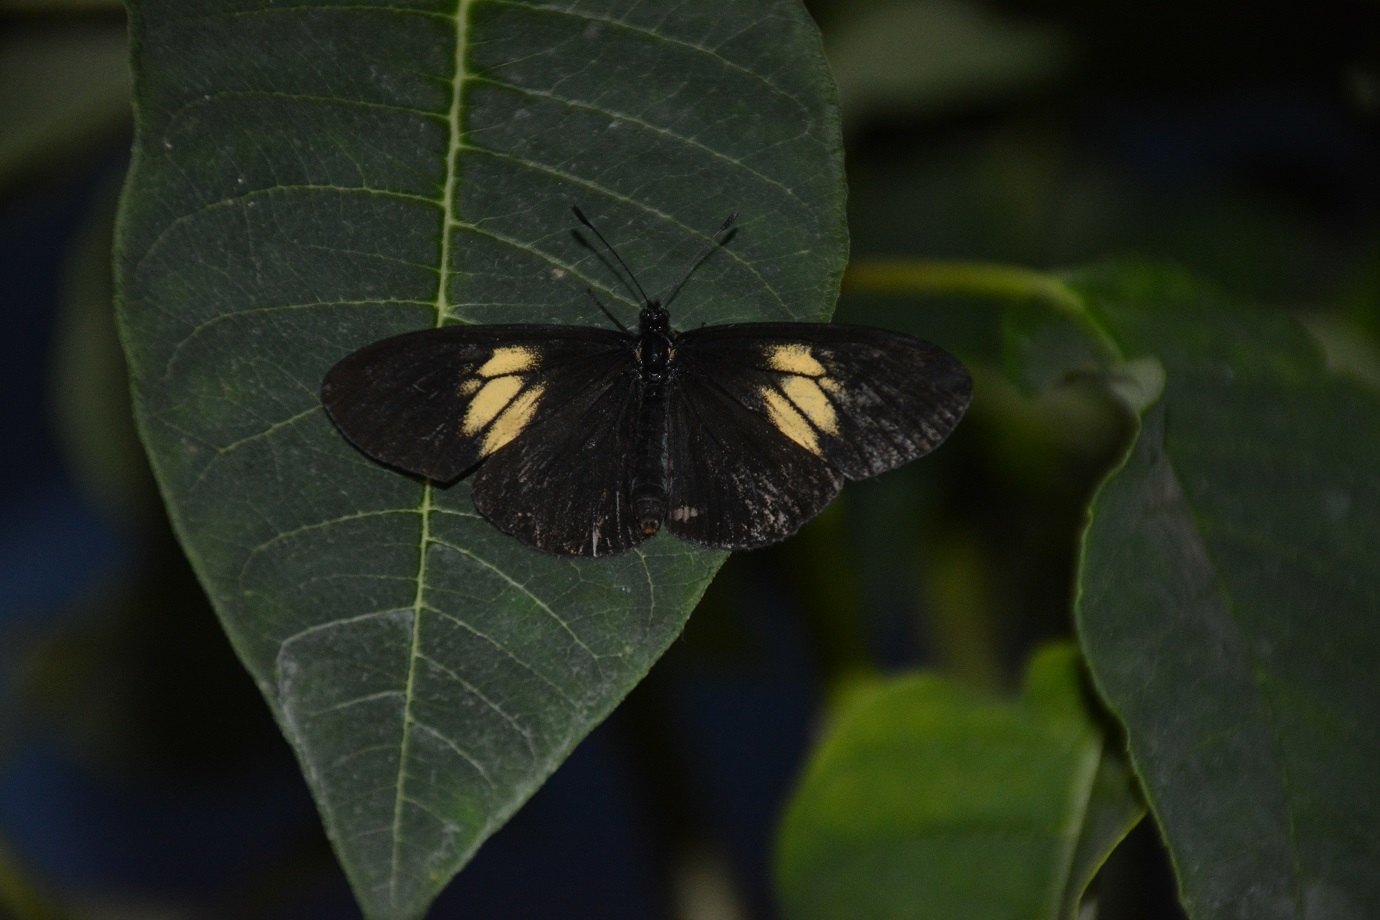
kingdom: Animalia
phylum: Arthropoda
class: Insecta
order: Lepidoptera
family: Nymphalidae
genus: Acraea
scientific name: Acraea Altinote ozomene
